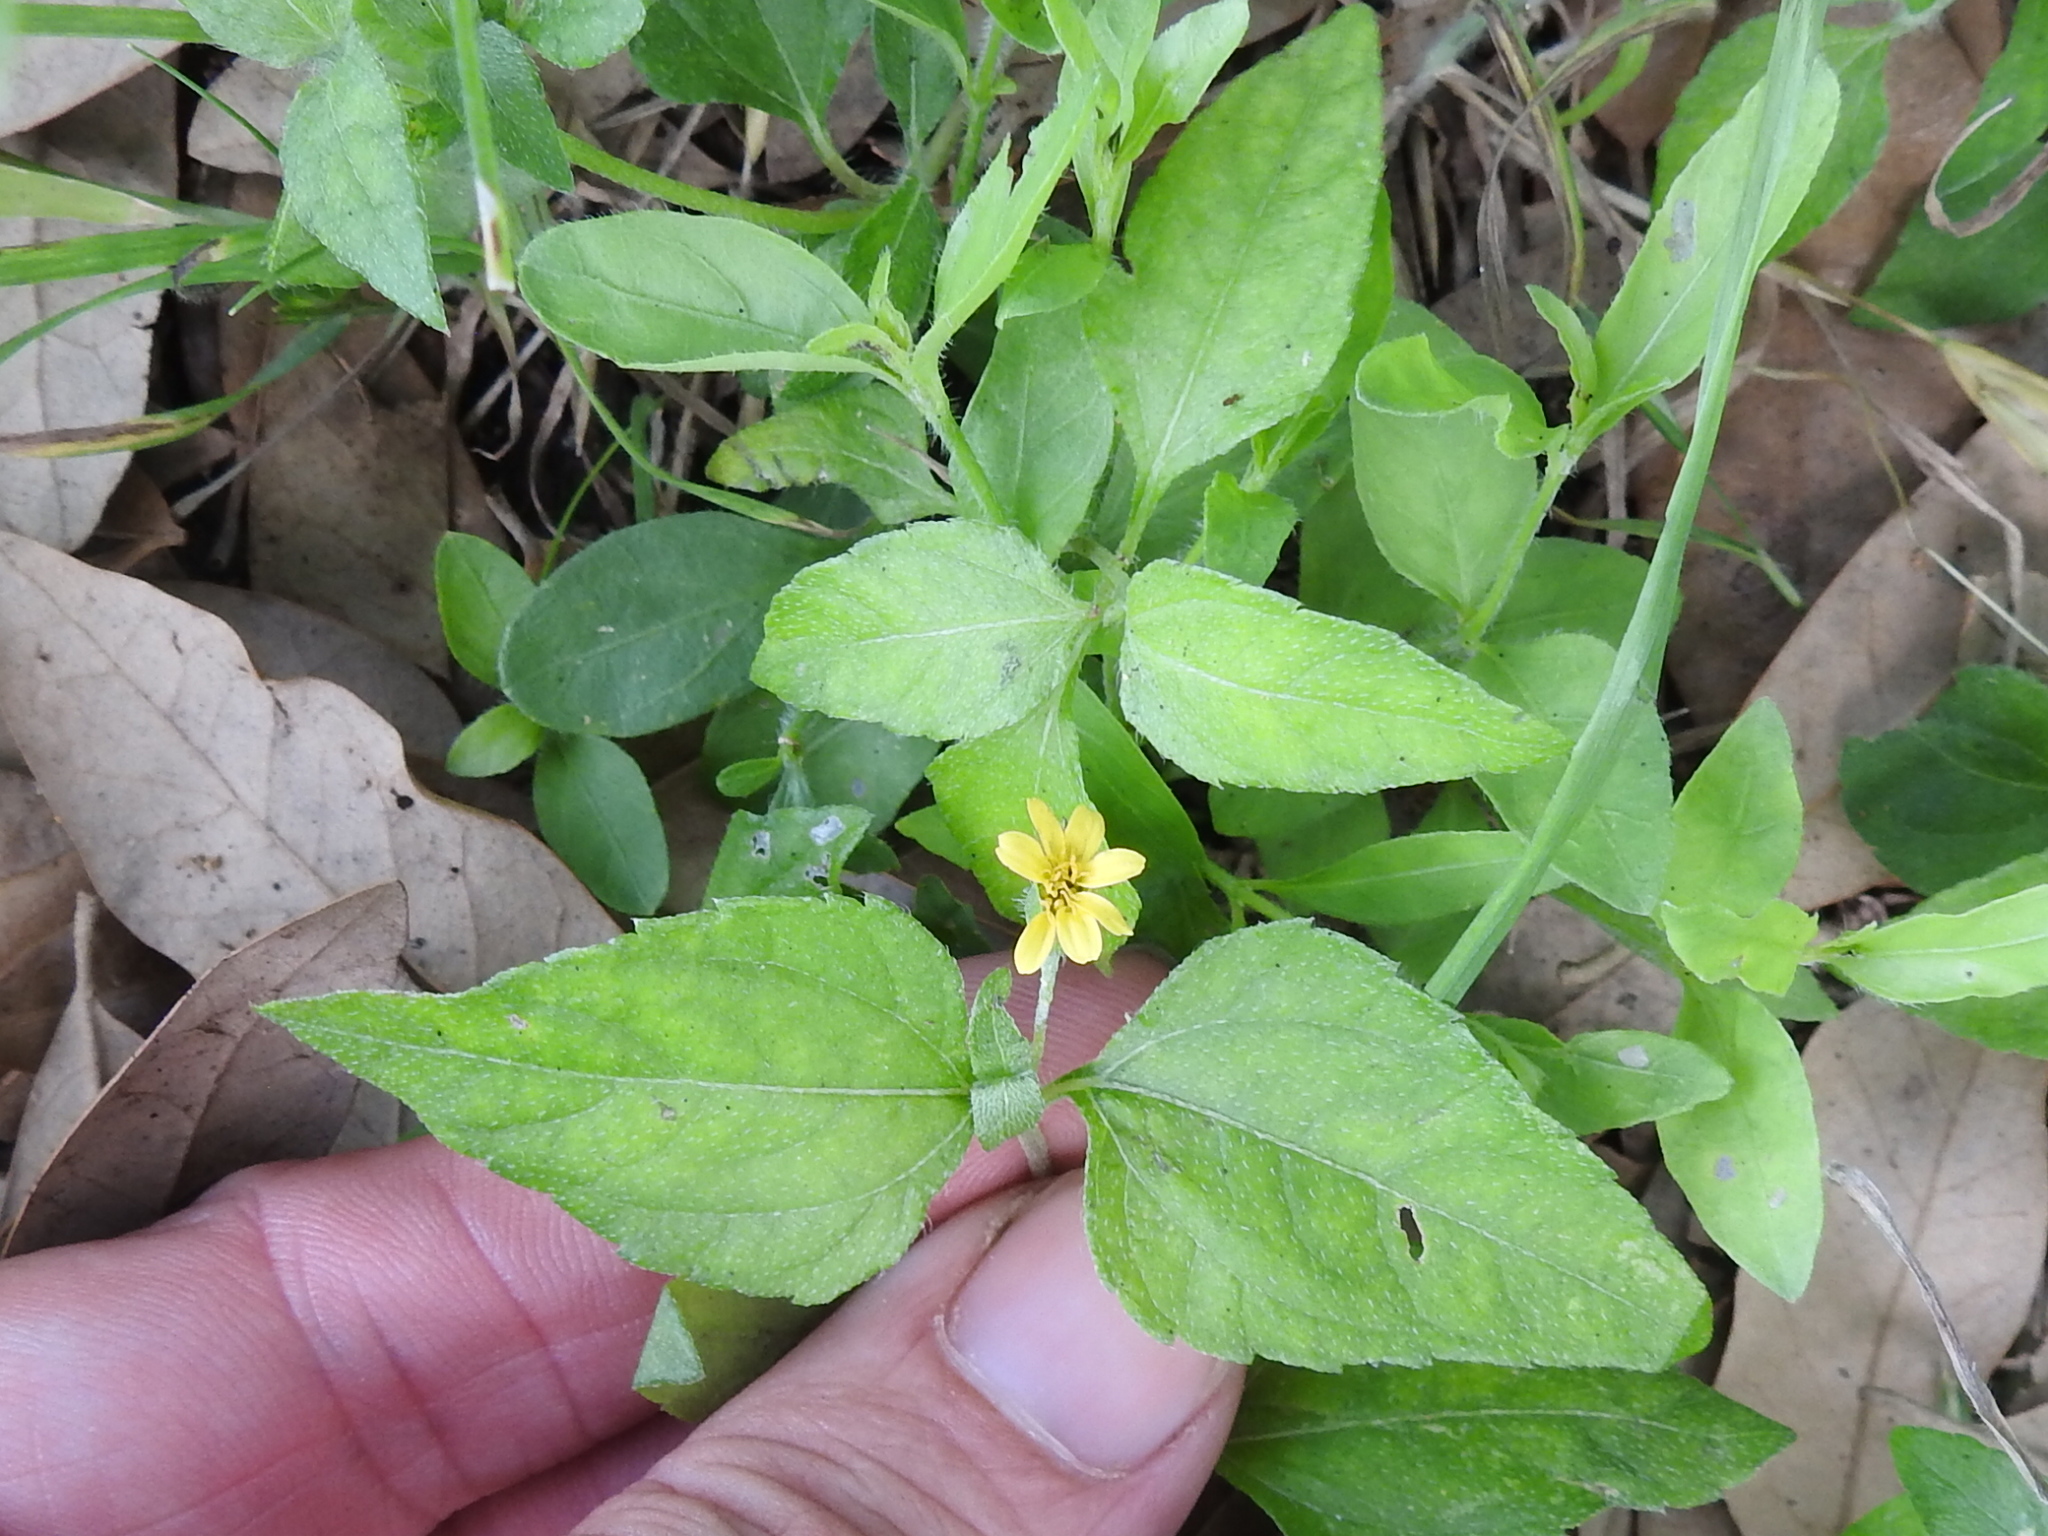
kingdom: Plantae
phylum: Tracheophyta
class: Magnoliopsida
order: Asterales
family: Asteraceae
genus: Calyptocarpus
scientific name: Calyptocarpus vialis
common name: Straggler daisy
